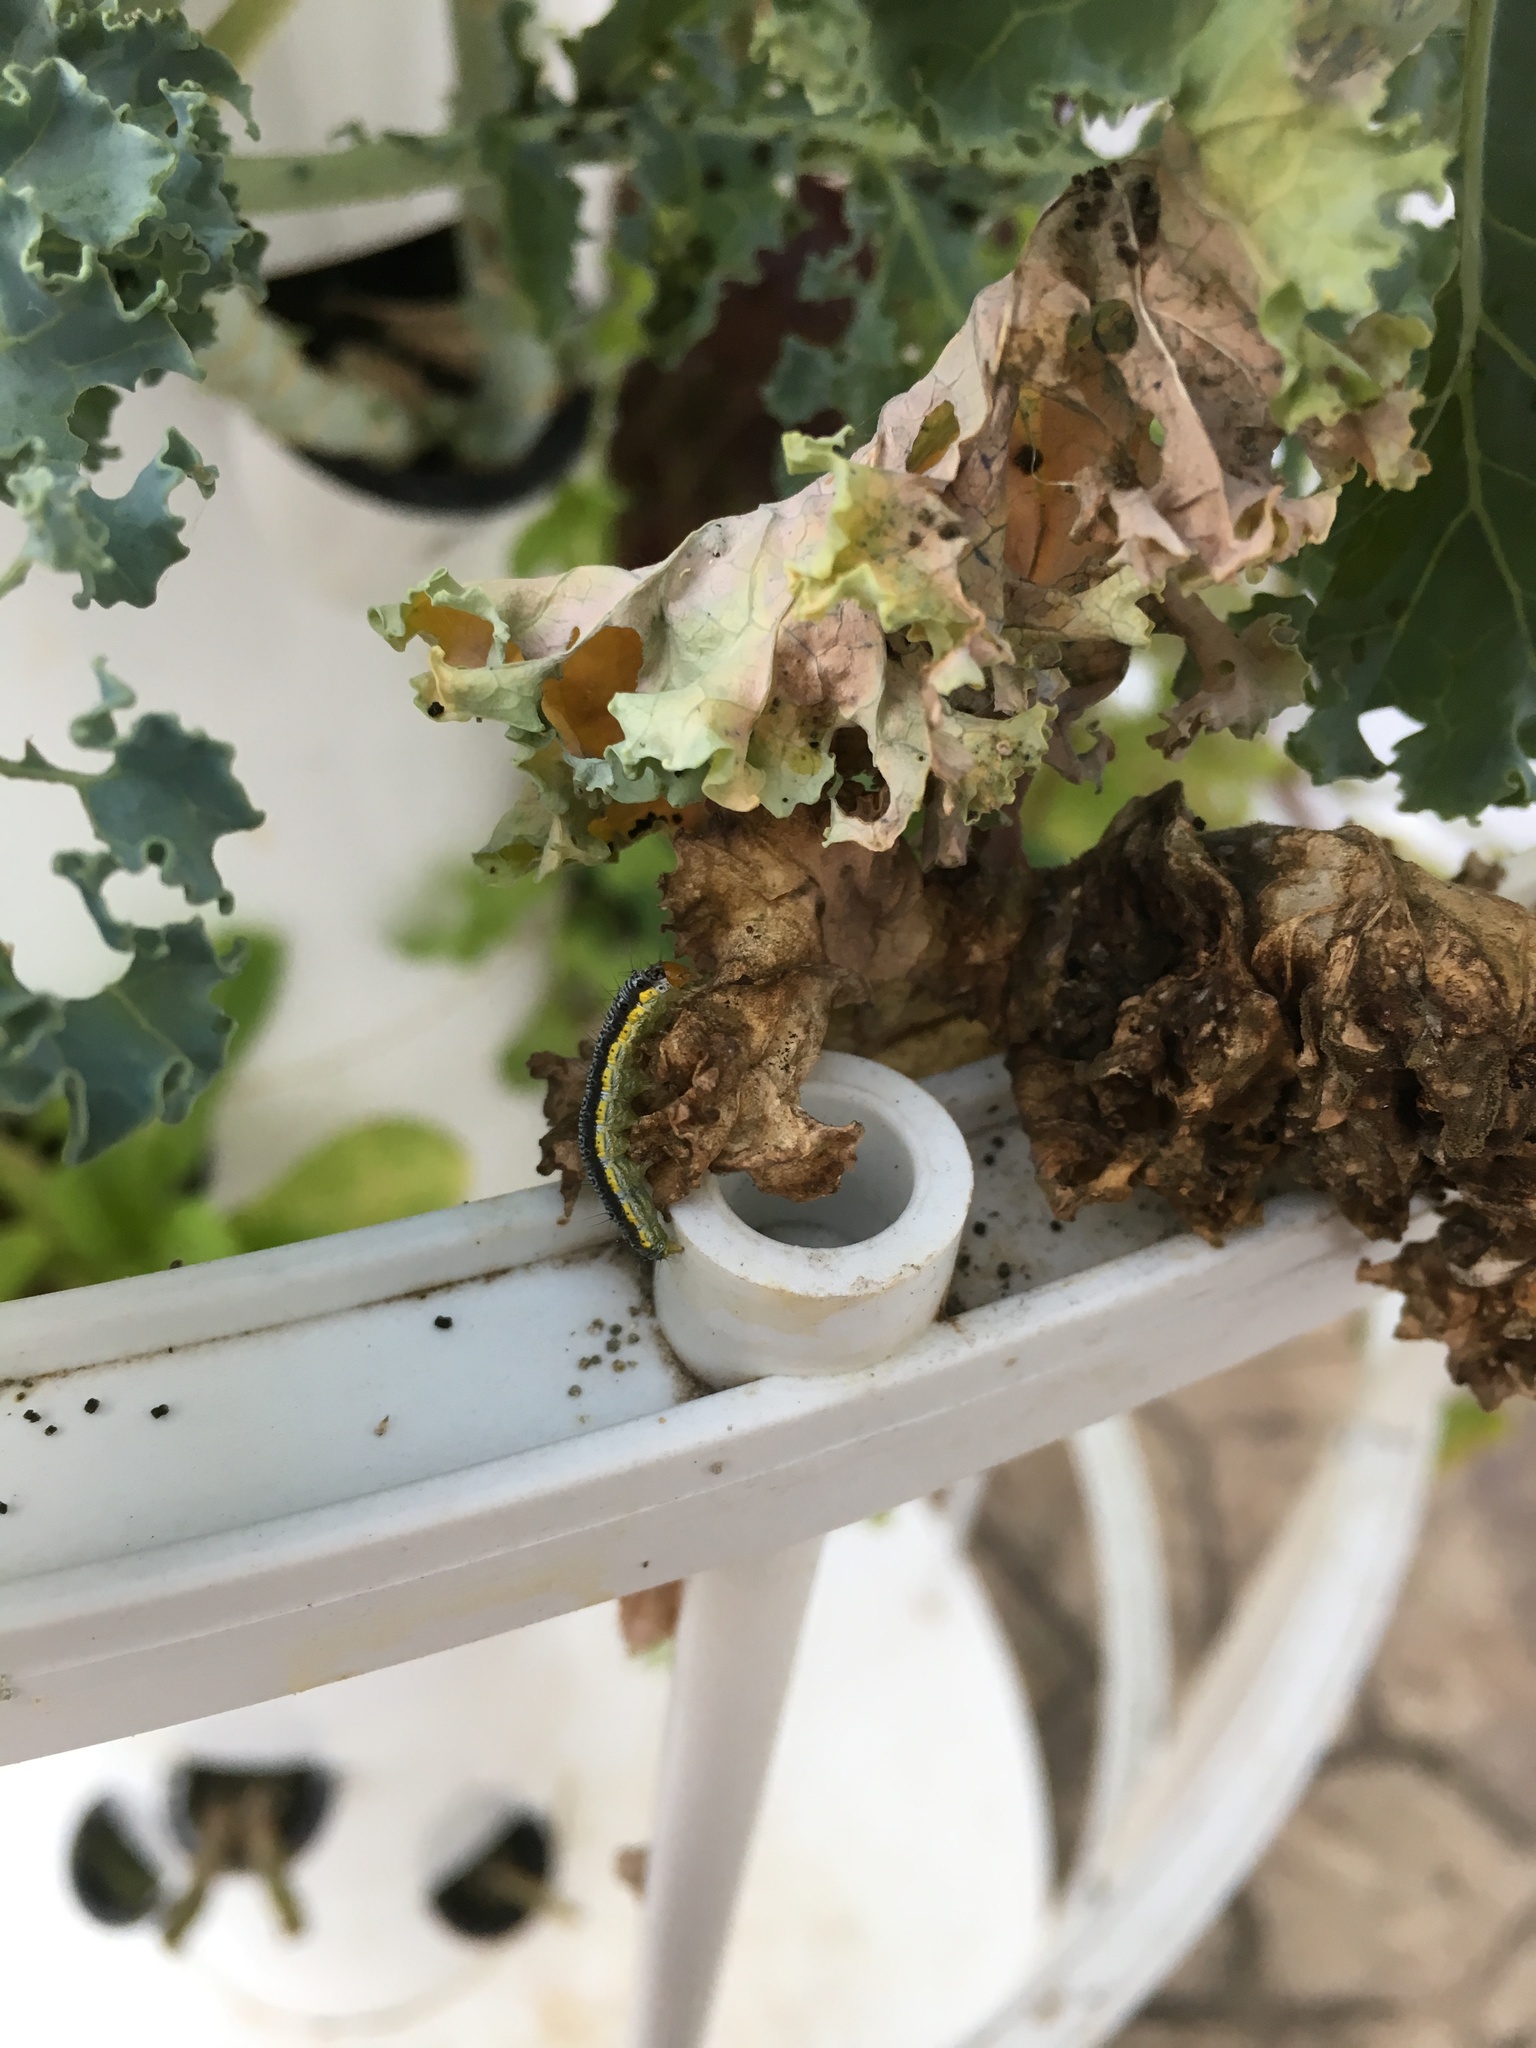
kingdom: Animalia
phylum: Arthropoda
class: Insecta
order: Lepidoptera
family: Crambidae
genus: Evergestis
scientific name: Evergestis rimosalis
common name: Cross-striped cabbageworm moth
